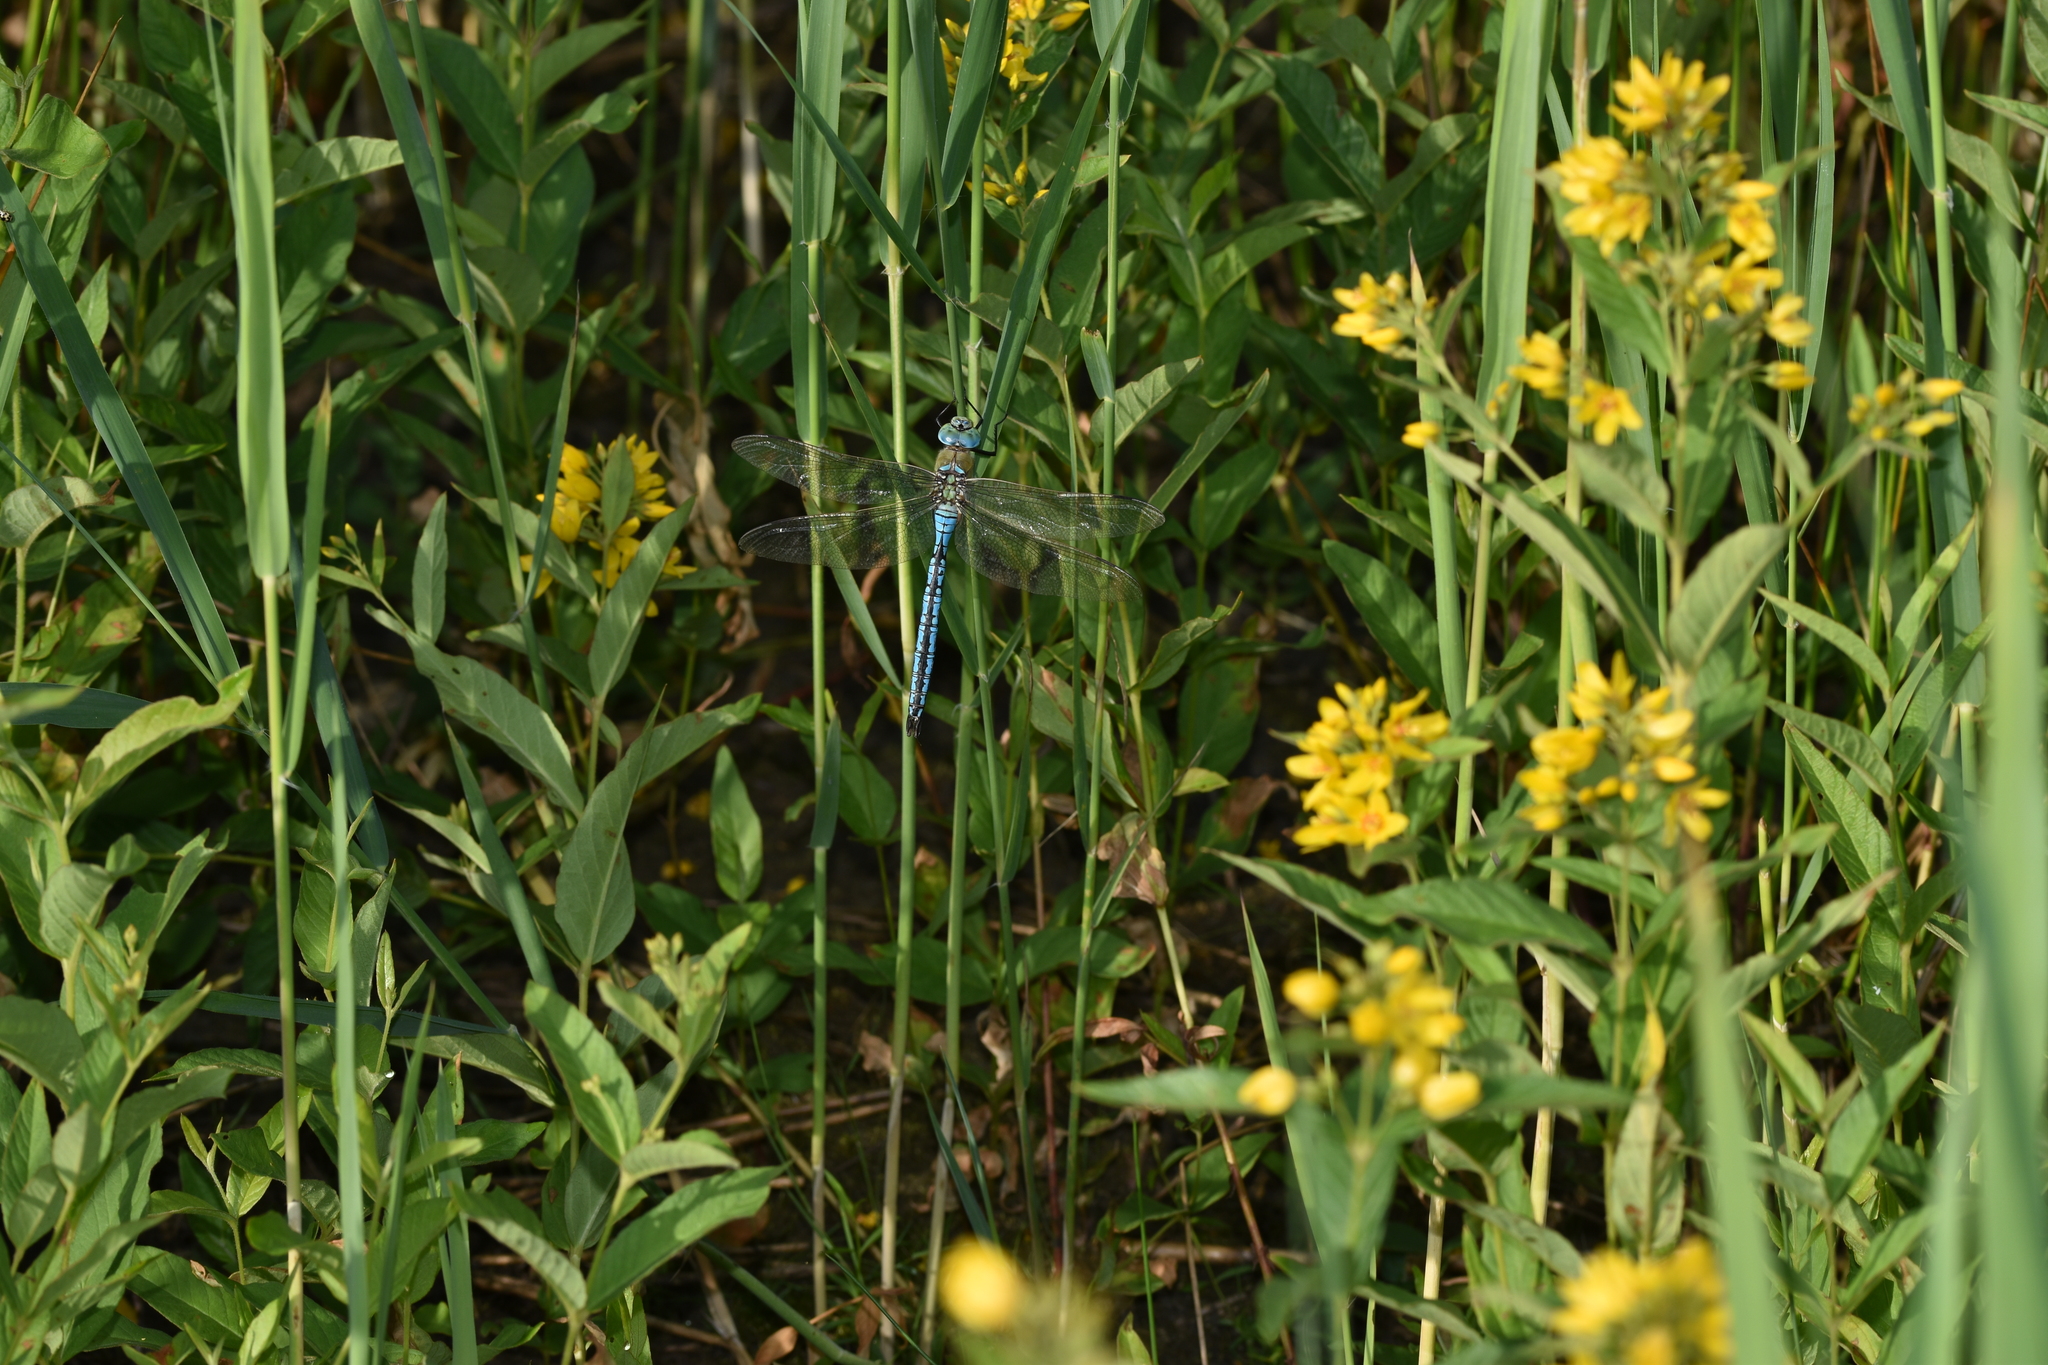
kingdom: Animalia
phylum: Arthropoda
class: Insecta
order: Odonata
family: Aeshnidae
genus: Anax
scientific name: Anax imperator
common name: Emperor dragonfly
